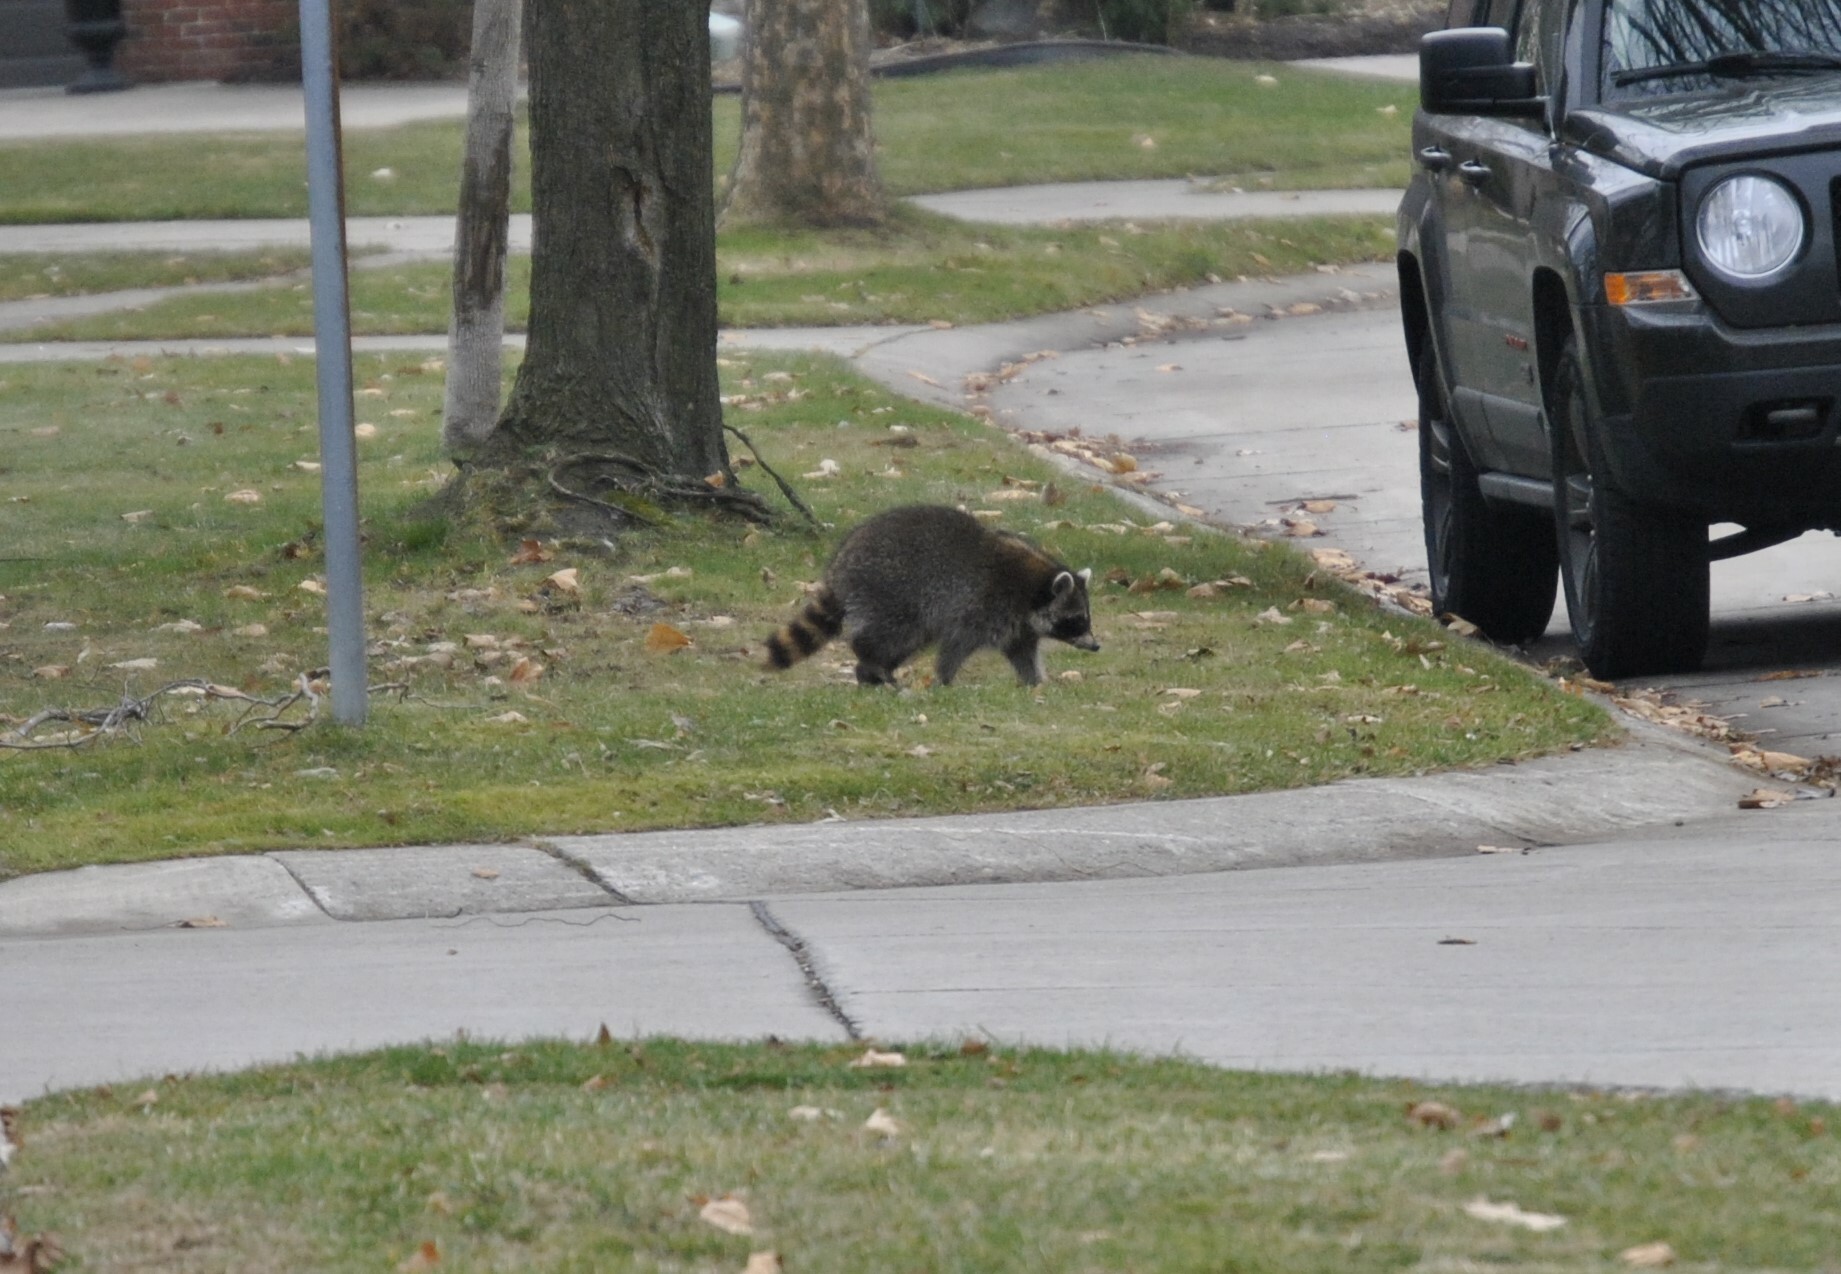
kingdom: Animalia
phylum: Chordata
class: Mammalia
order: Carnivora
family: Procyonidae
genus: Procyon
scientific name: Procyon lotor
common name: Raccoon
